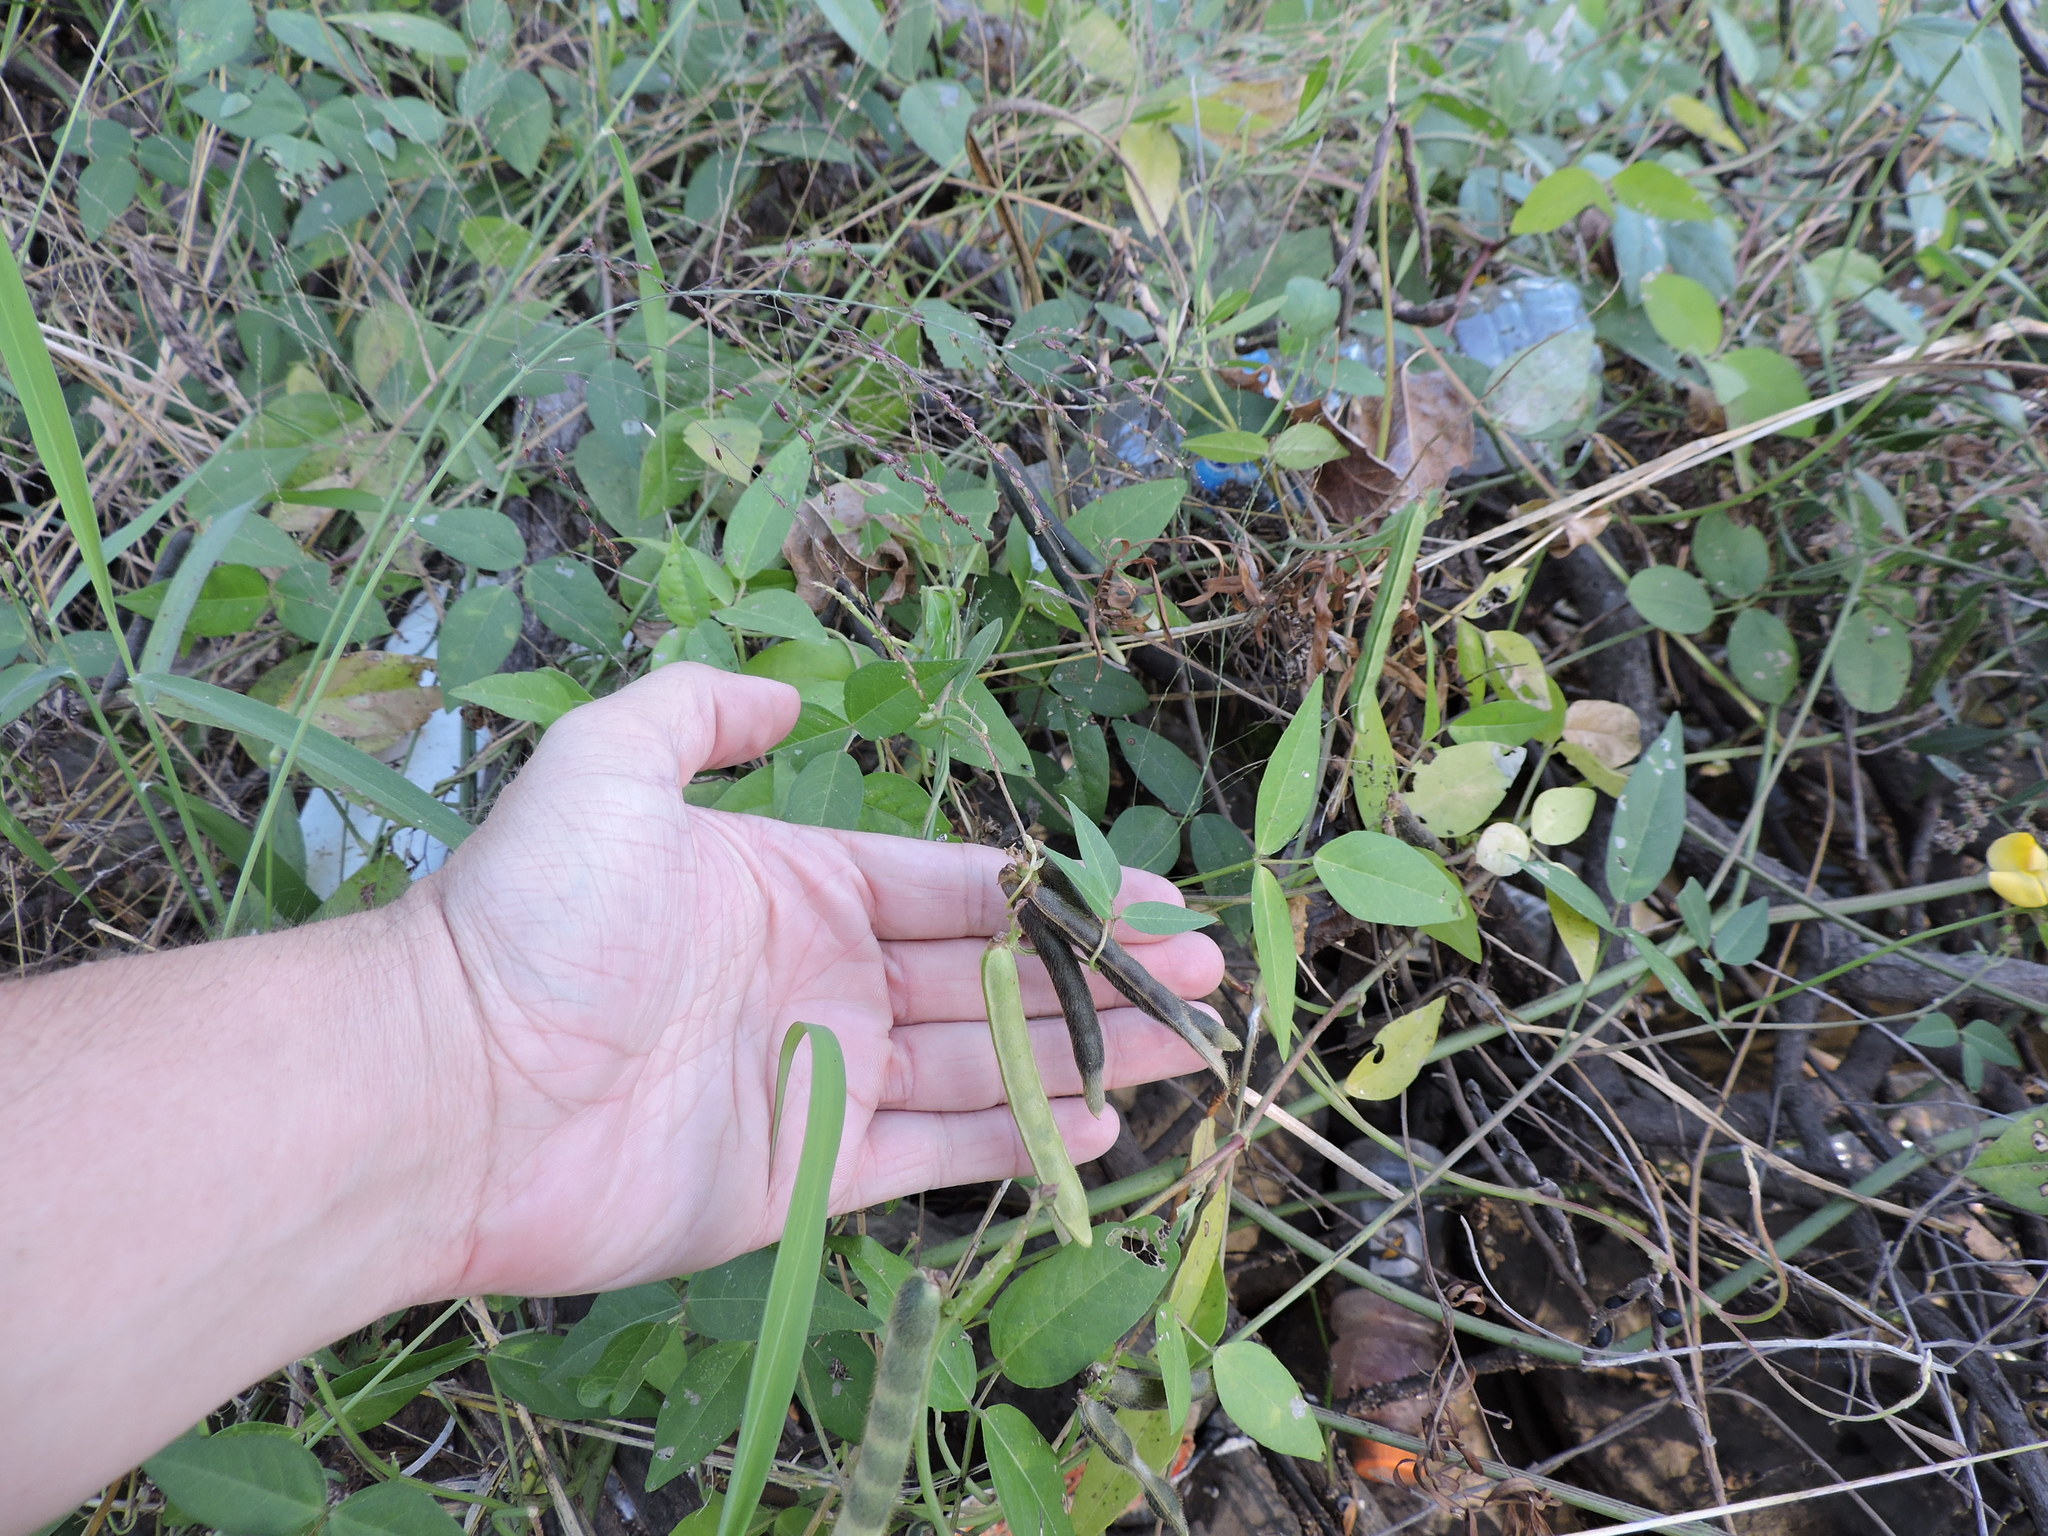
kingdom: Plantae
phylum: Tracheophyta
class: Magnoliopsida
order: Fabales
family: Fabaceae
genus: Vigna
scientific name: Vigna luteola
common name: Hairypod cowpea
